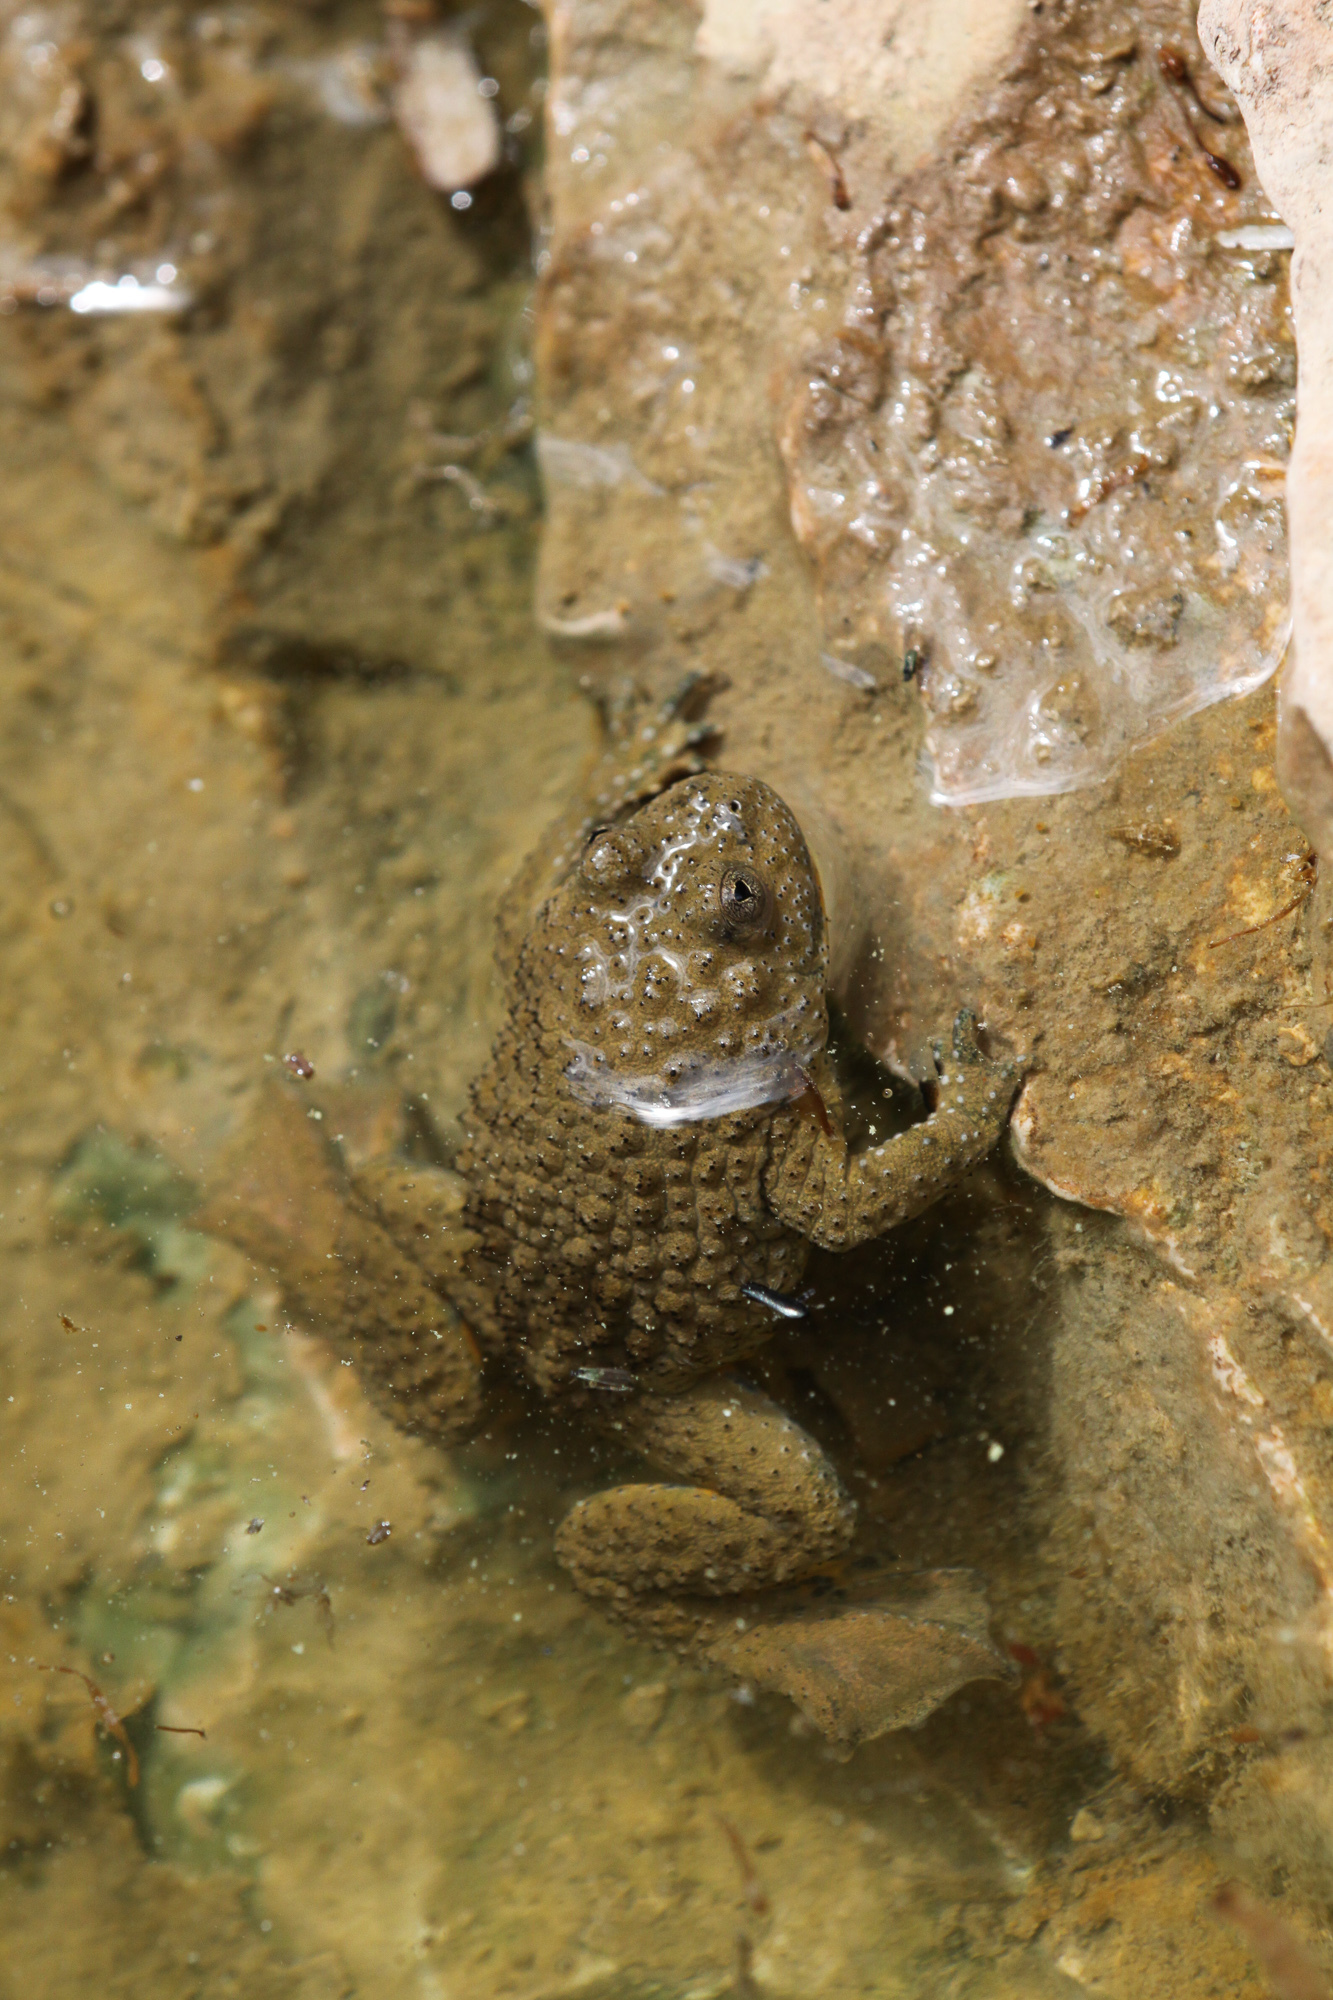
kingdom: Animalia
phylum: Chordata
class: Amphibia
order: Anura
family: Bombinatoridae
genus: Bombina
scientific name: Bombina variegata
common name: Yellow-bellied toad
